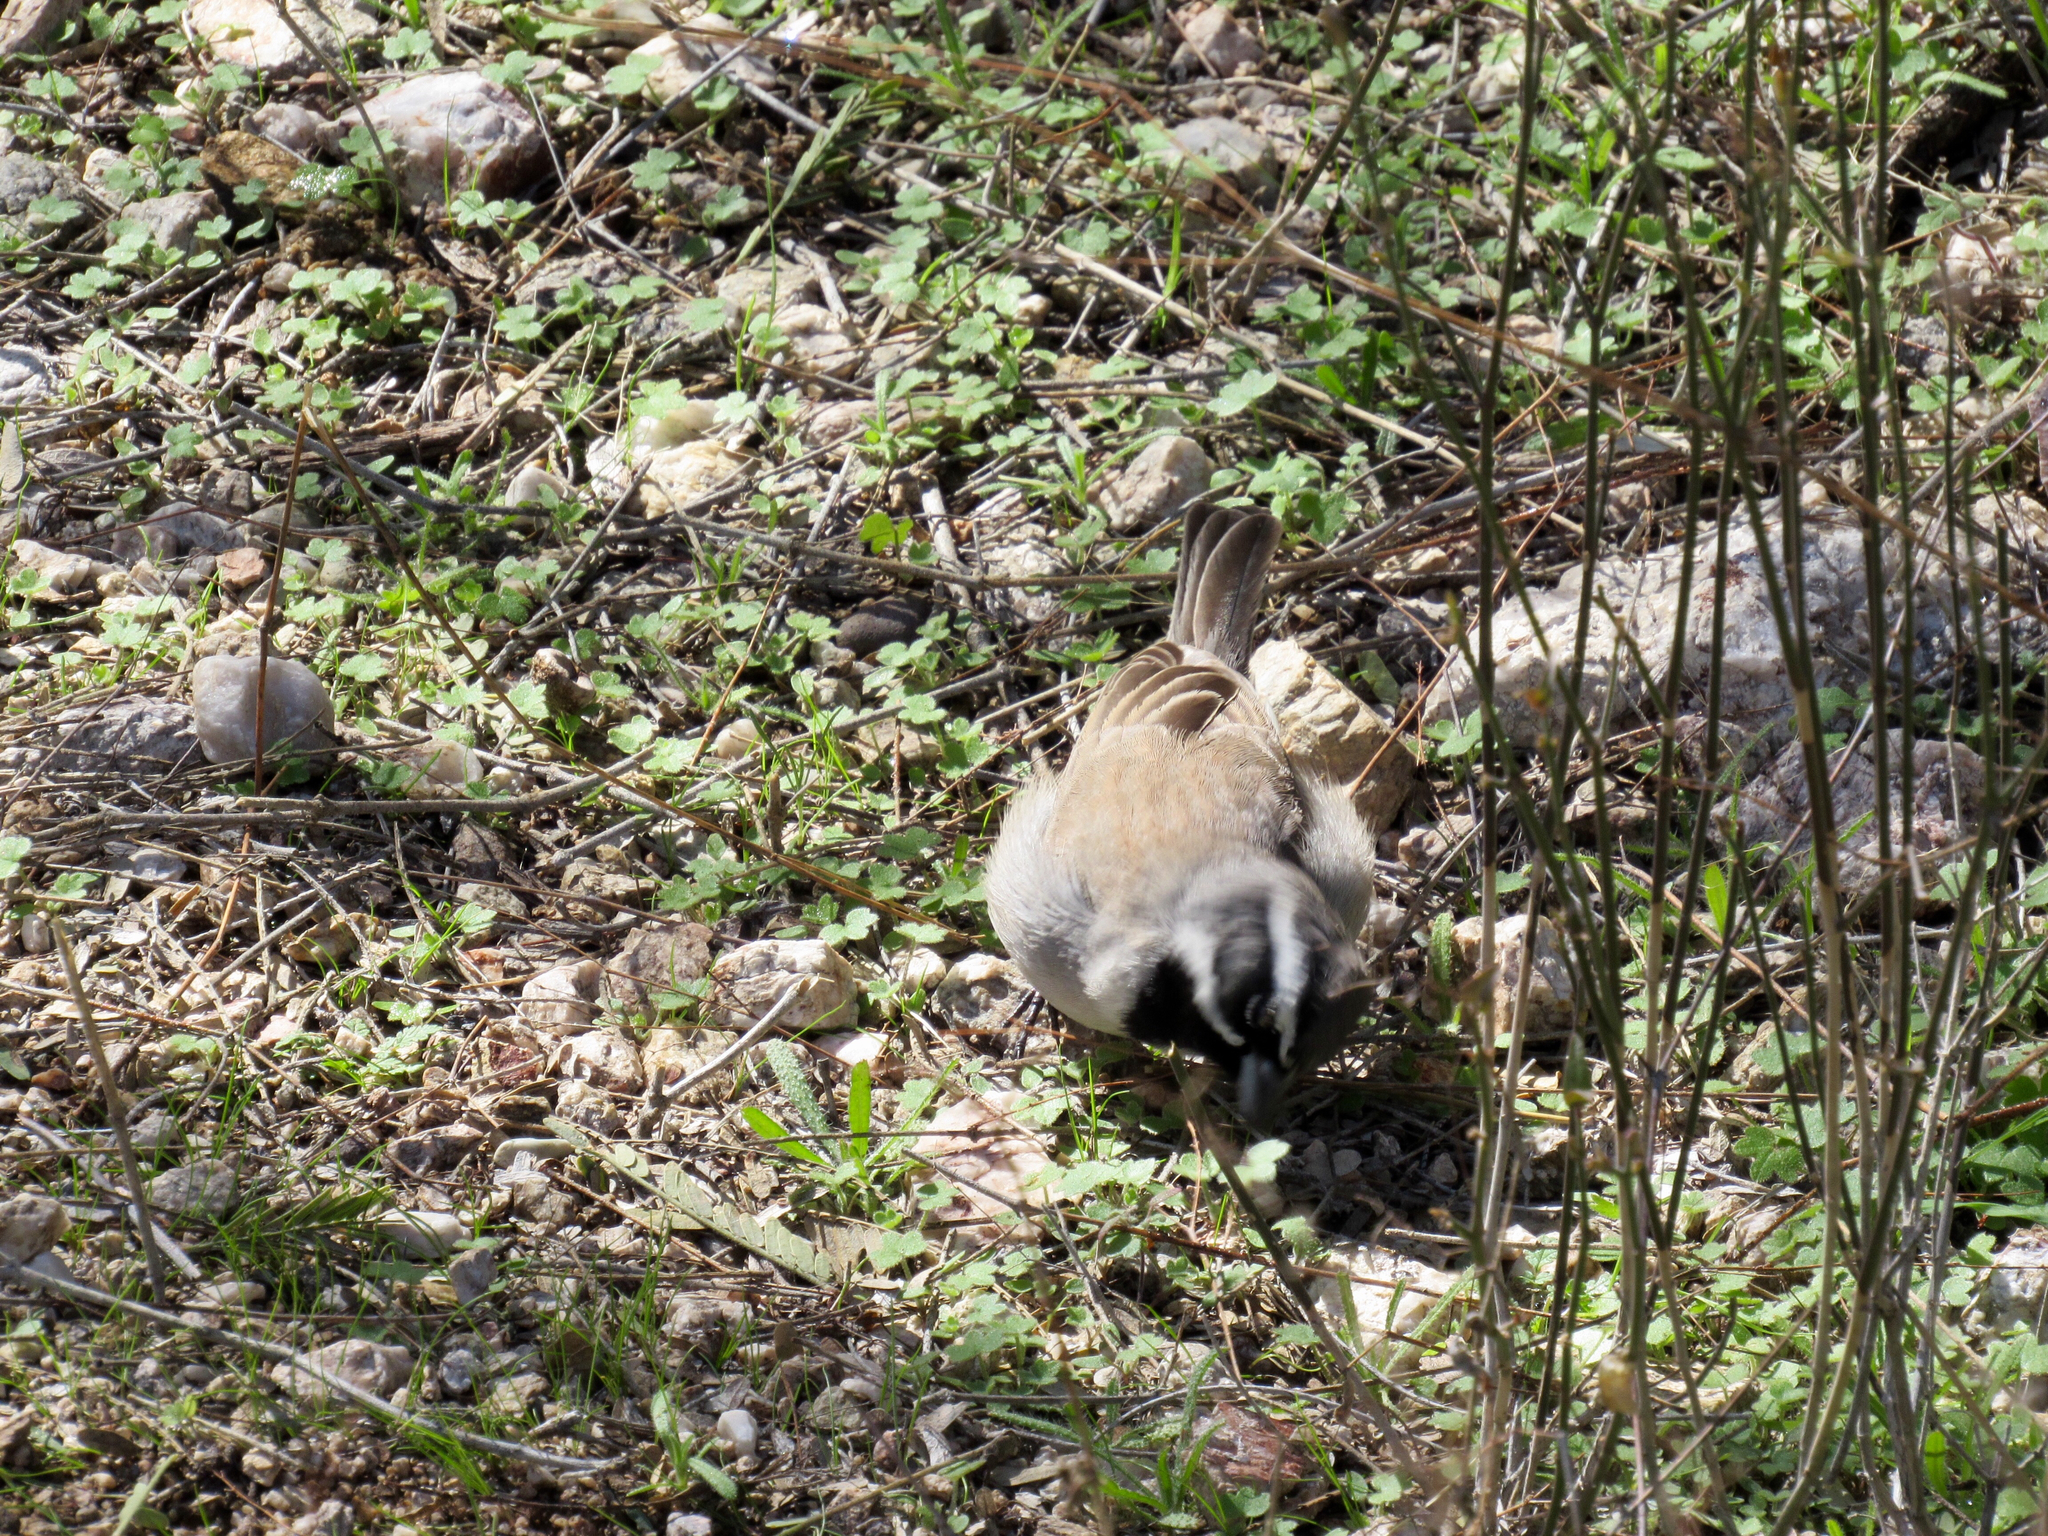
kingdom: Animalia
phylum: Chordata
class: Aves
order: Passeriformes
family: Passerellidae
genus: Amphispiza
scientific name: Amphispiza bilineata
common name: Black-throated sparrow
